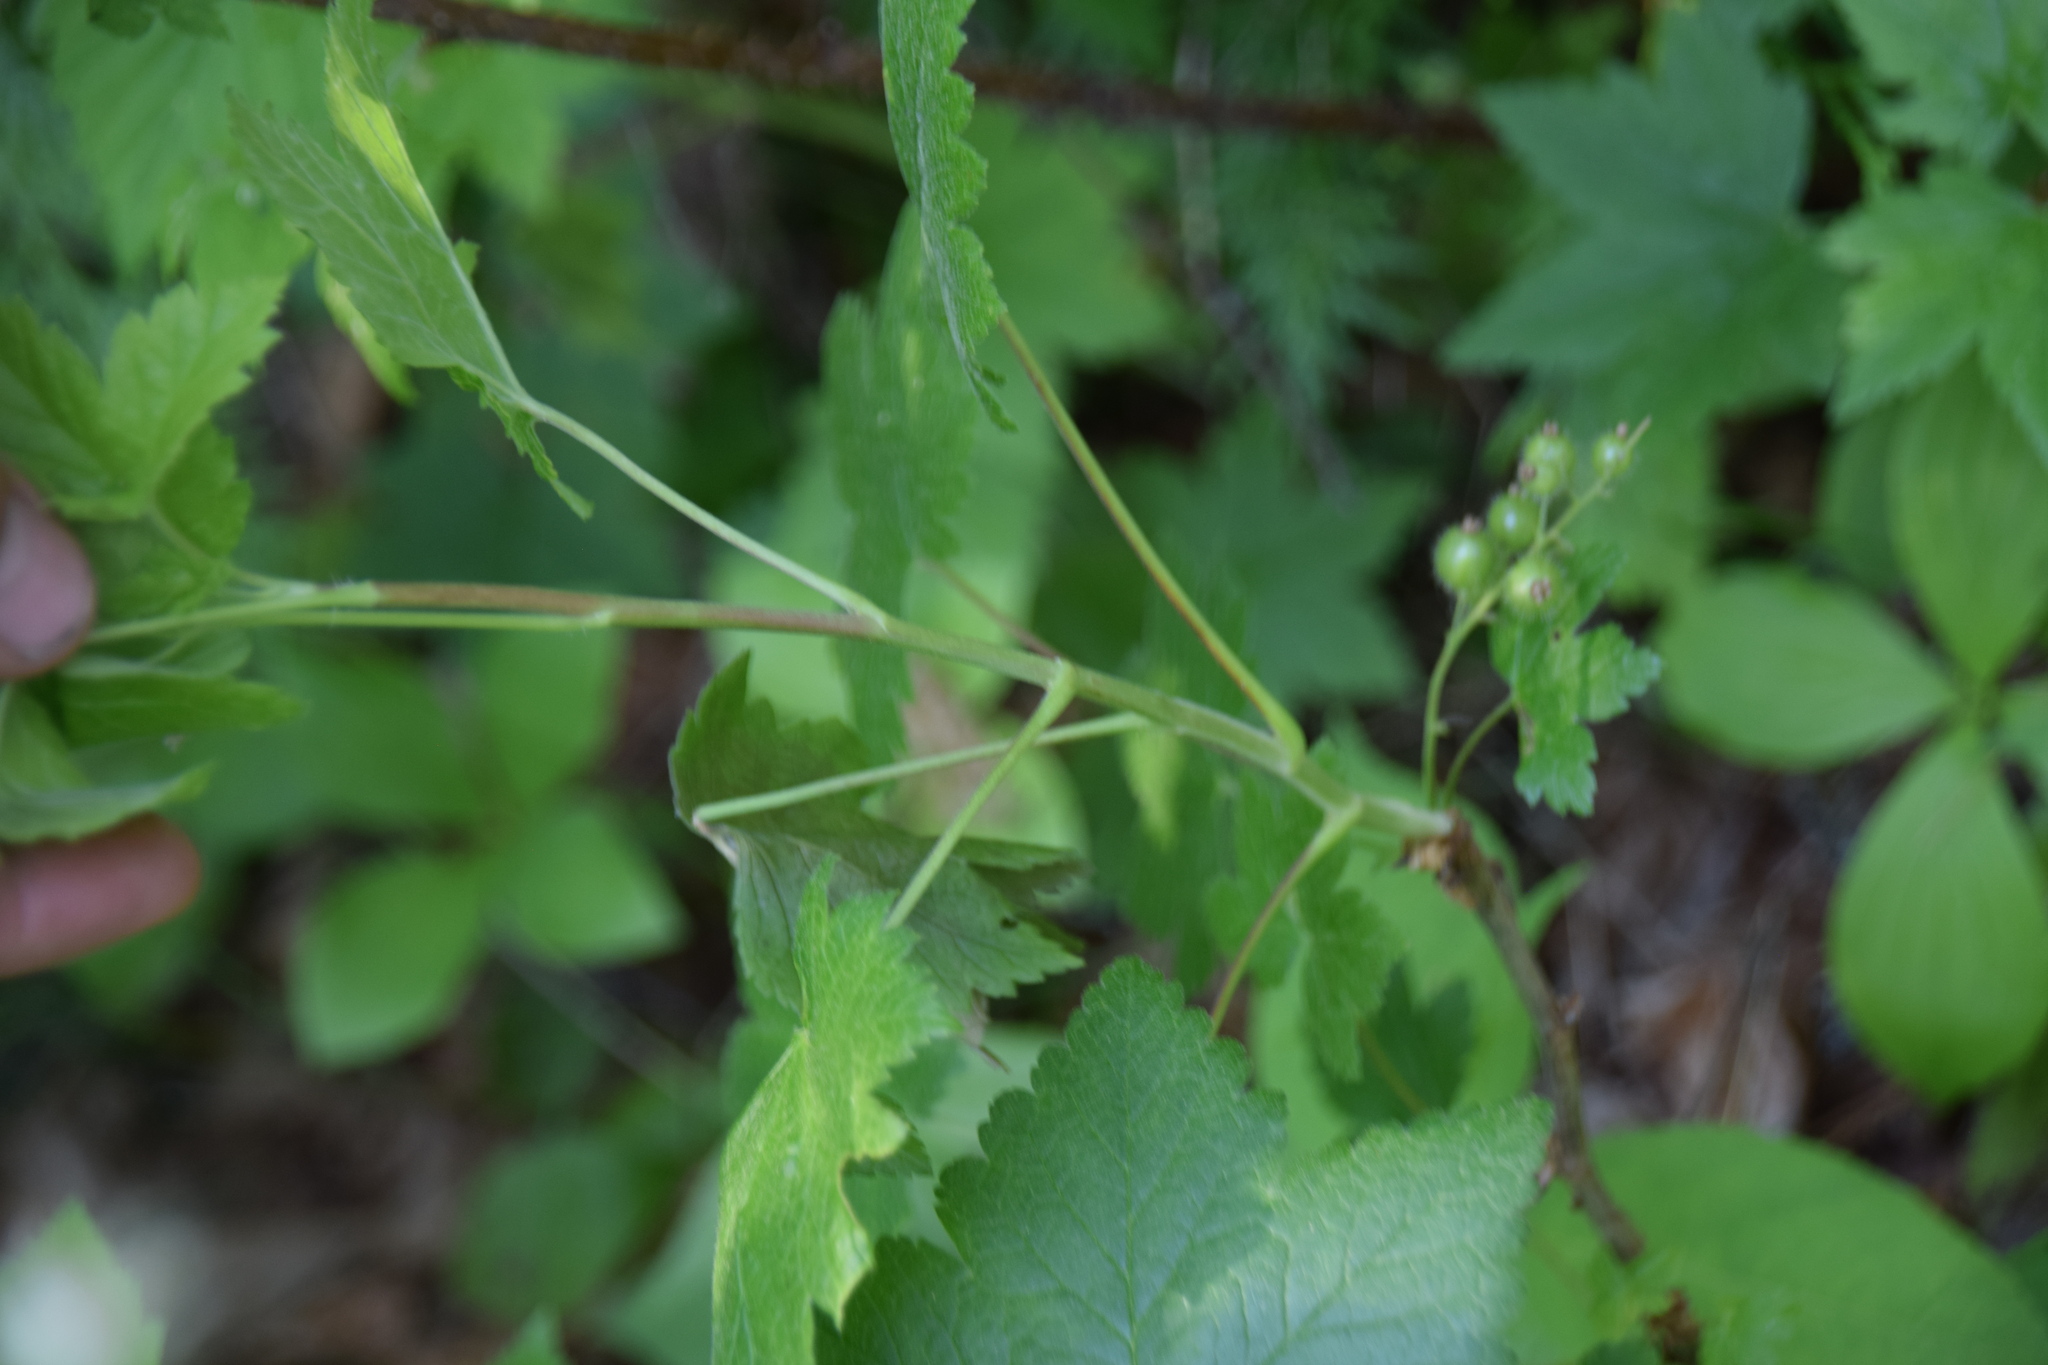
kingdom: Plantae
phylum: Tracheophyta
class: Magnoliopsida
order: Saxifragales
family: Grossulariaceae
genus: Ribes
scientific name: Ribes glandulosum
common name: Skunk currant
